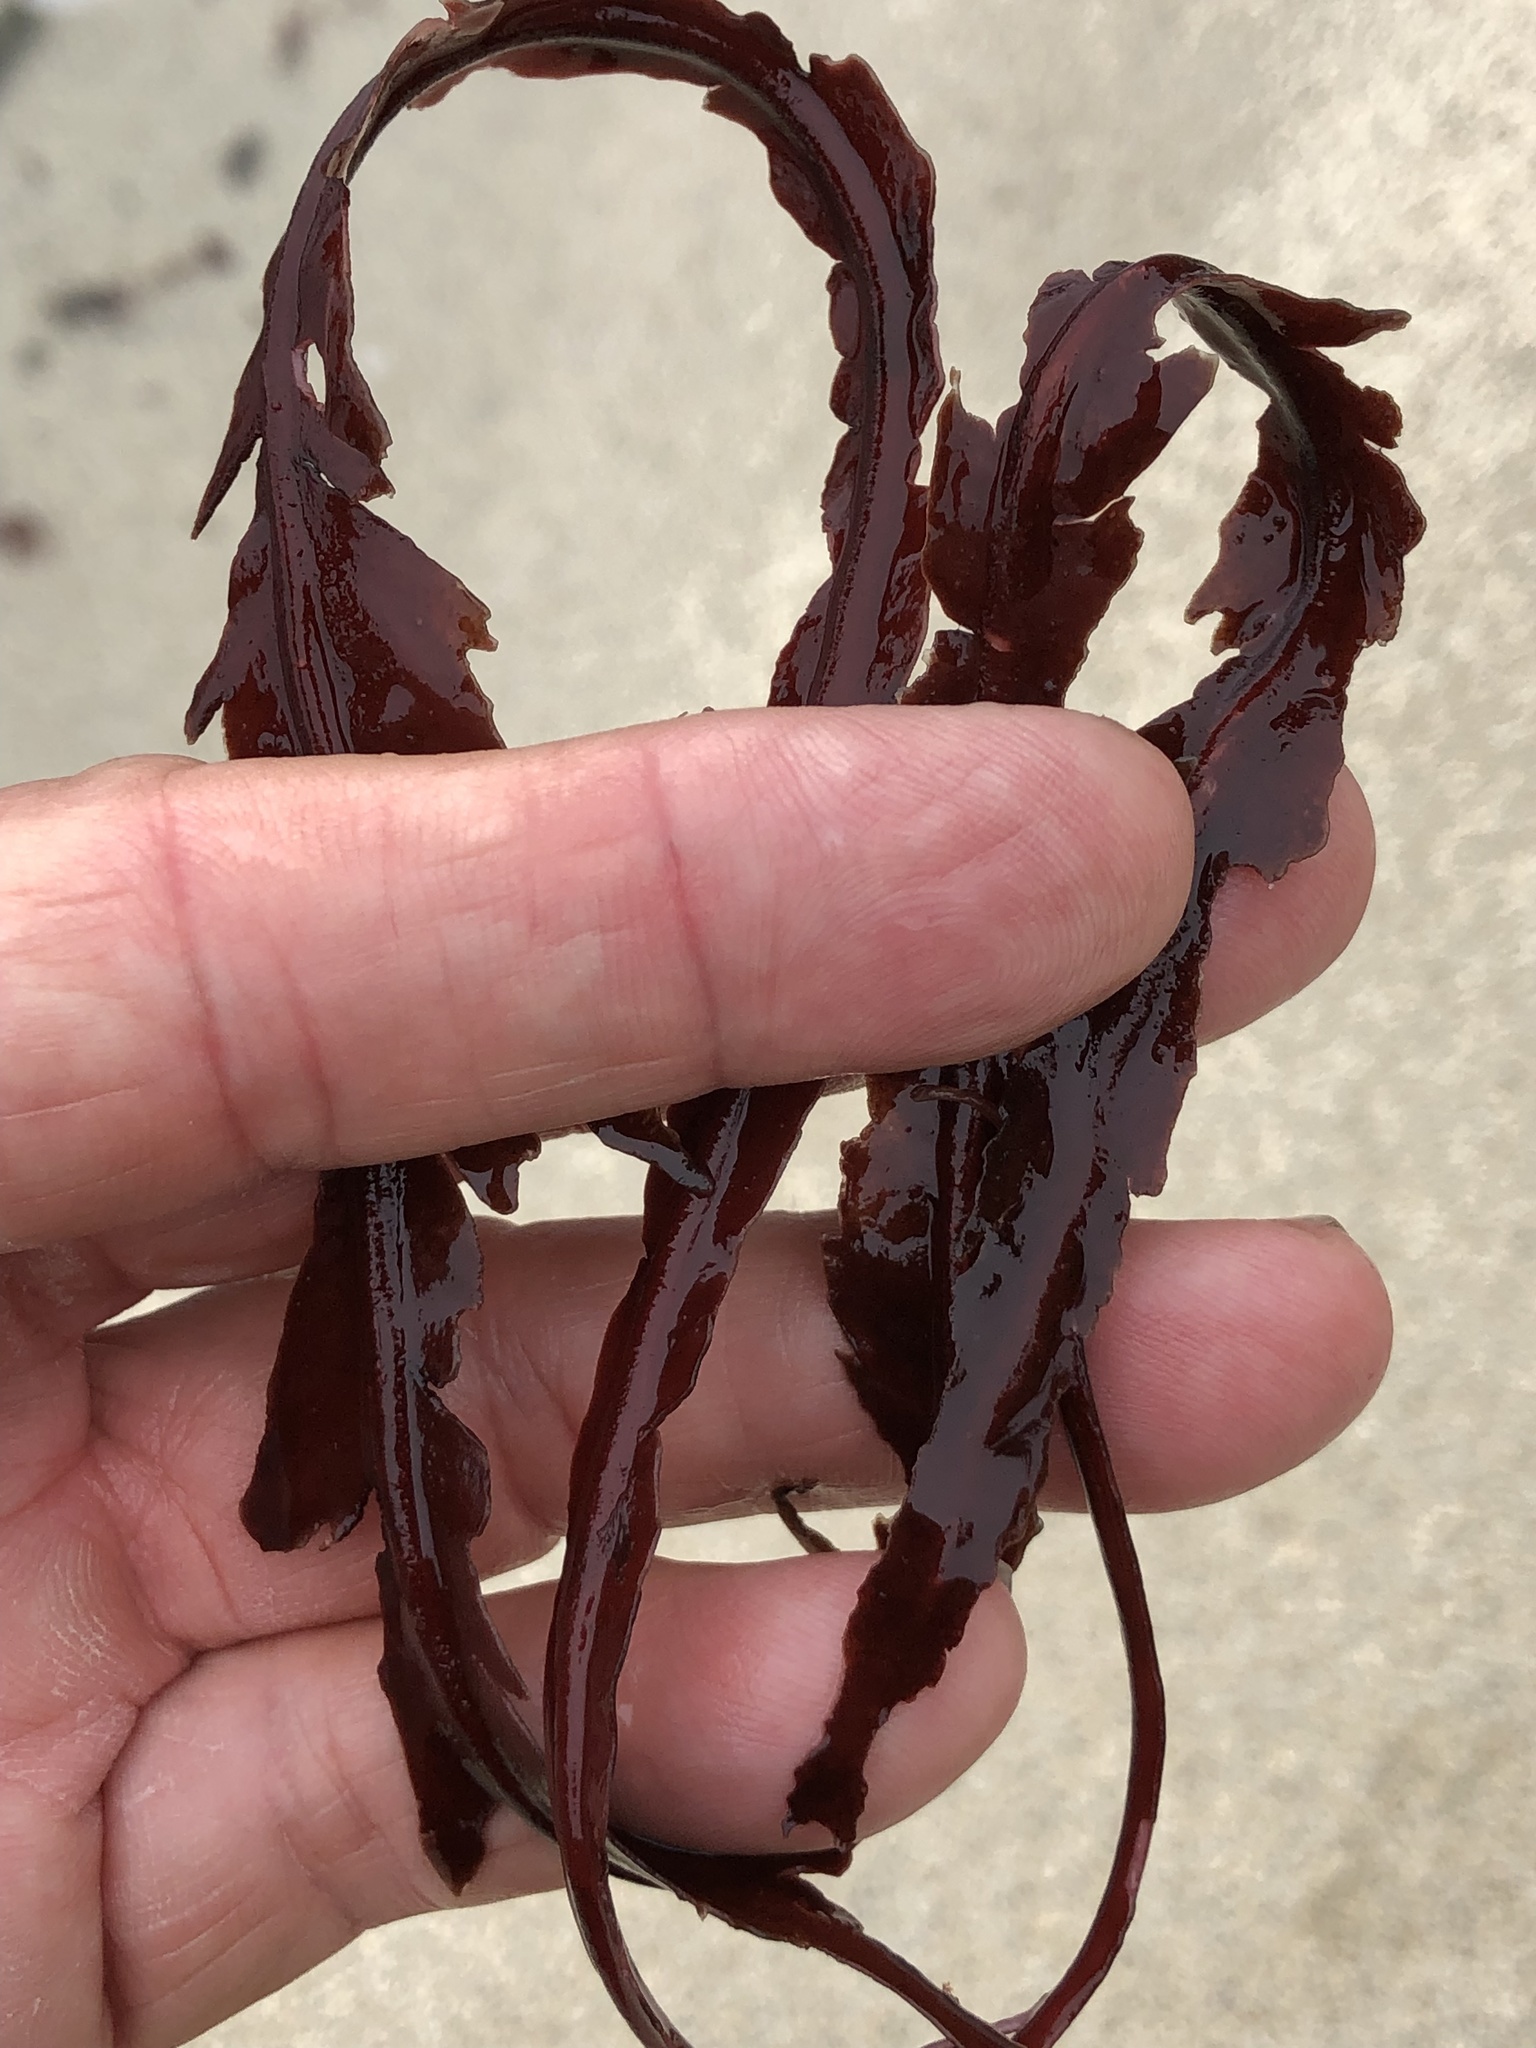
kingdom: Plantae
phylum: Rhodophyta
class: Florideophyceae
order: Gigartinales
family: Kallymeniaceae
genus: Erythrophyllum
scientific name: Erythrophyllum delesserioides
